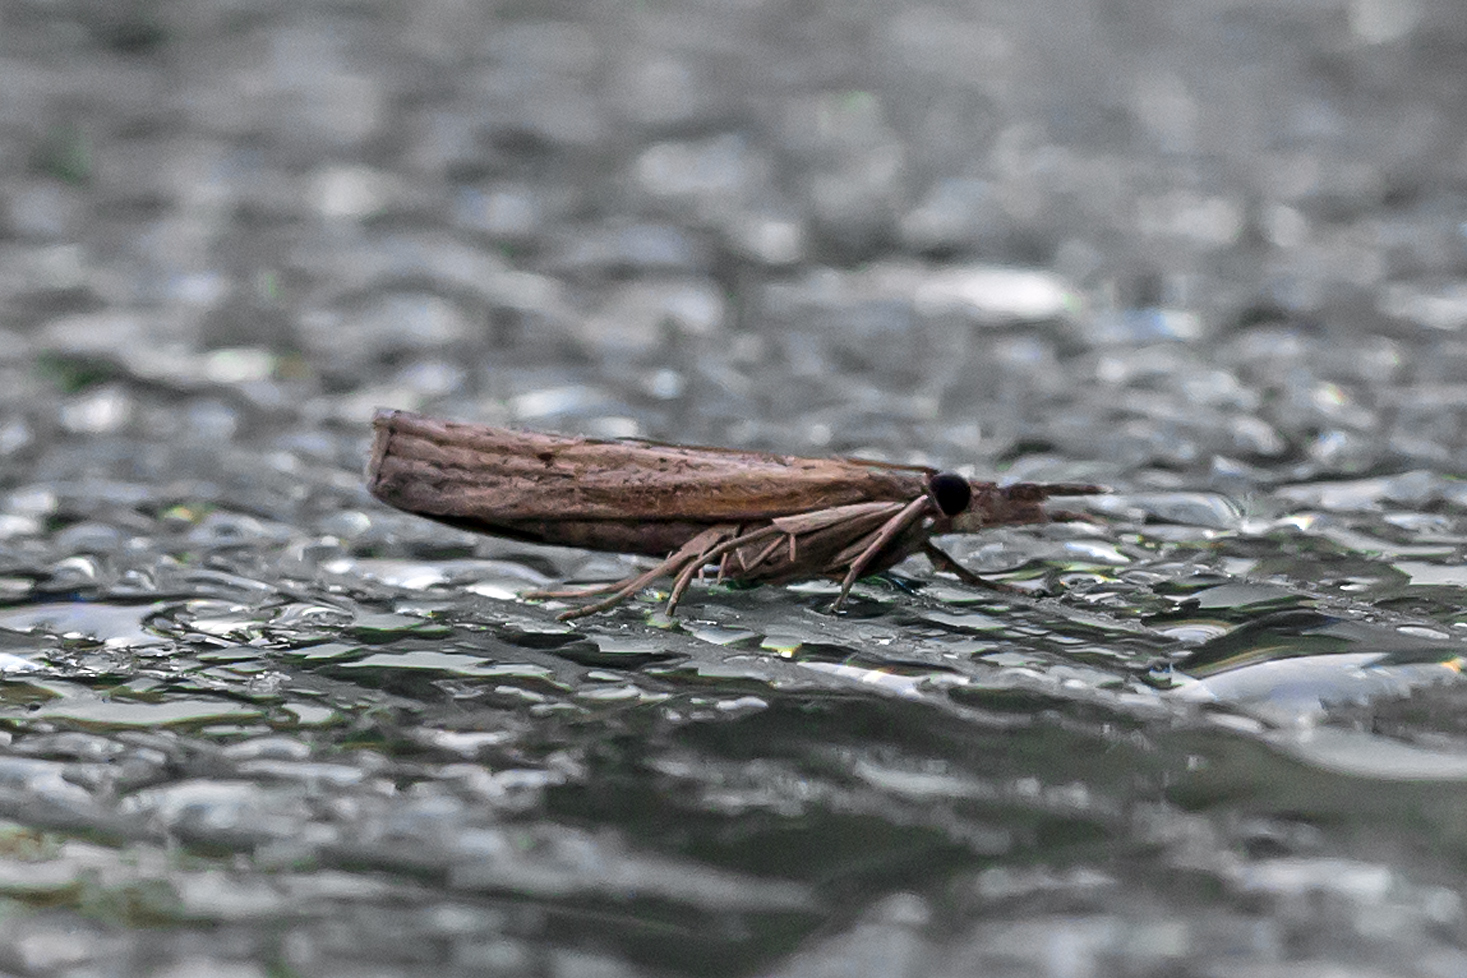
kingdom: Animalia
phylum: Arthropoda
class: Insecta
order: Lepidoptera
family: Crambidae
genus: Fissicrambus
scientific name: Fissicrambus mutabilis
